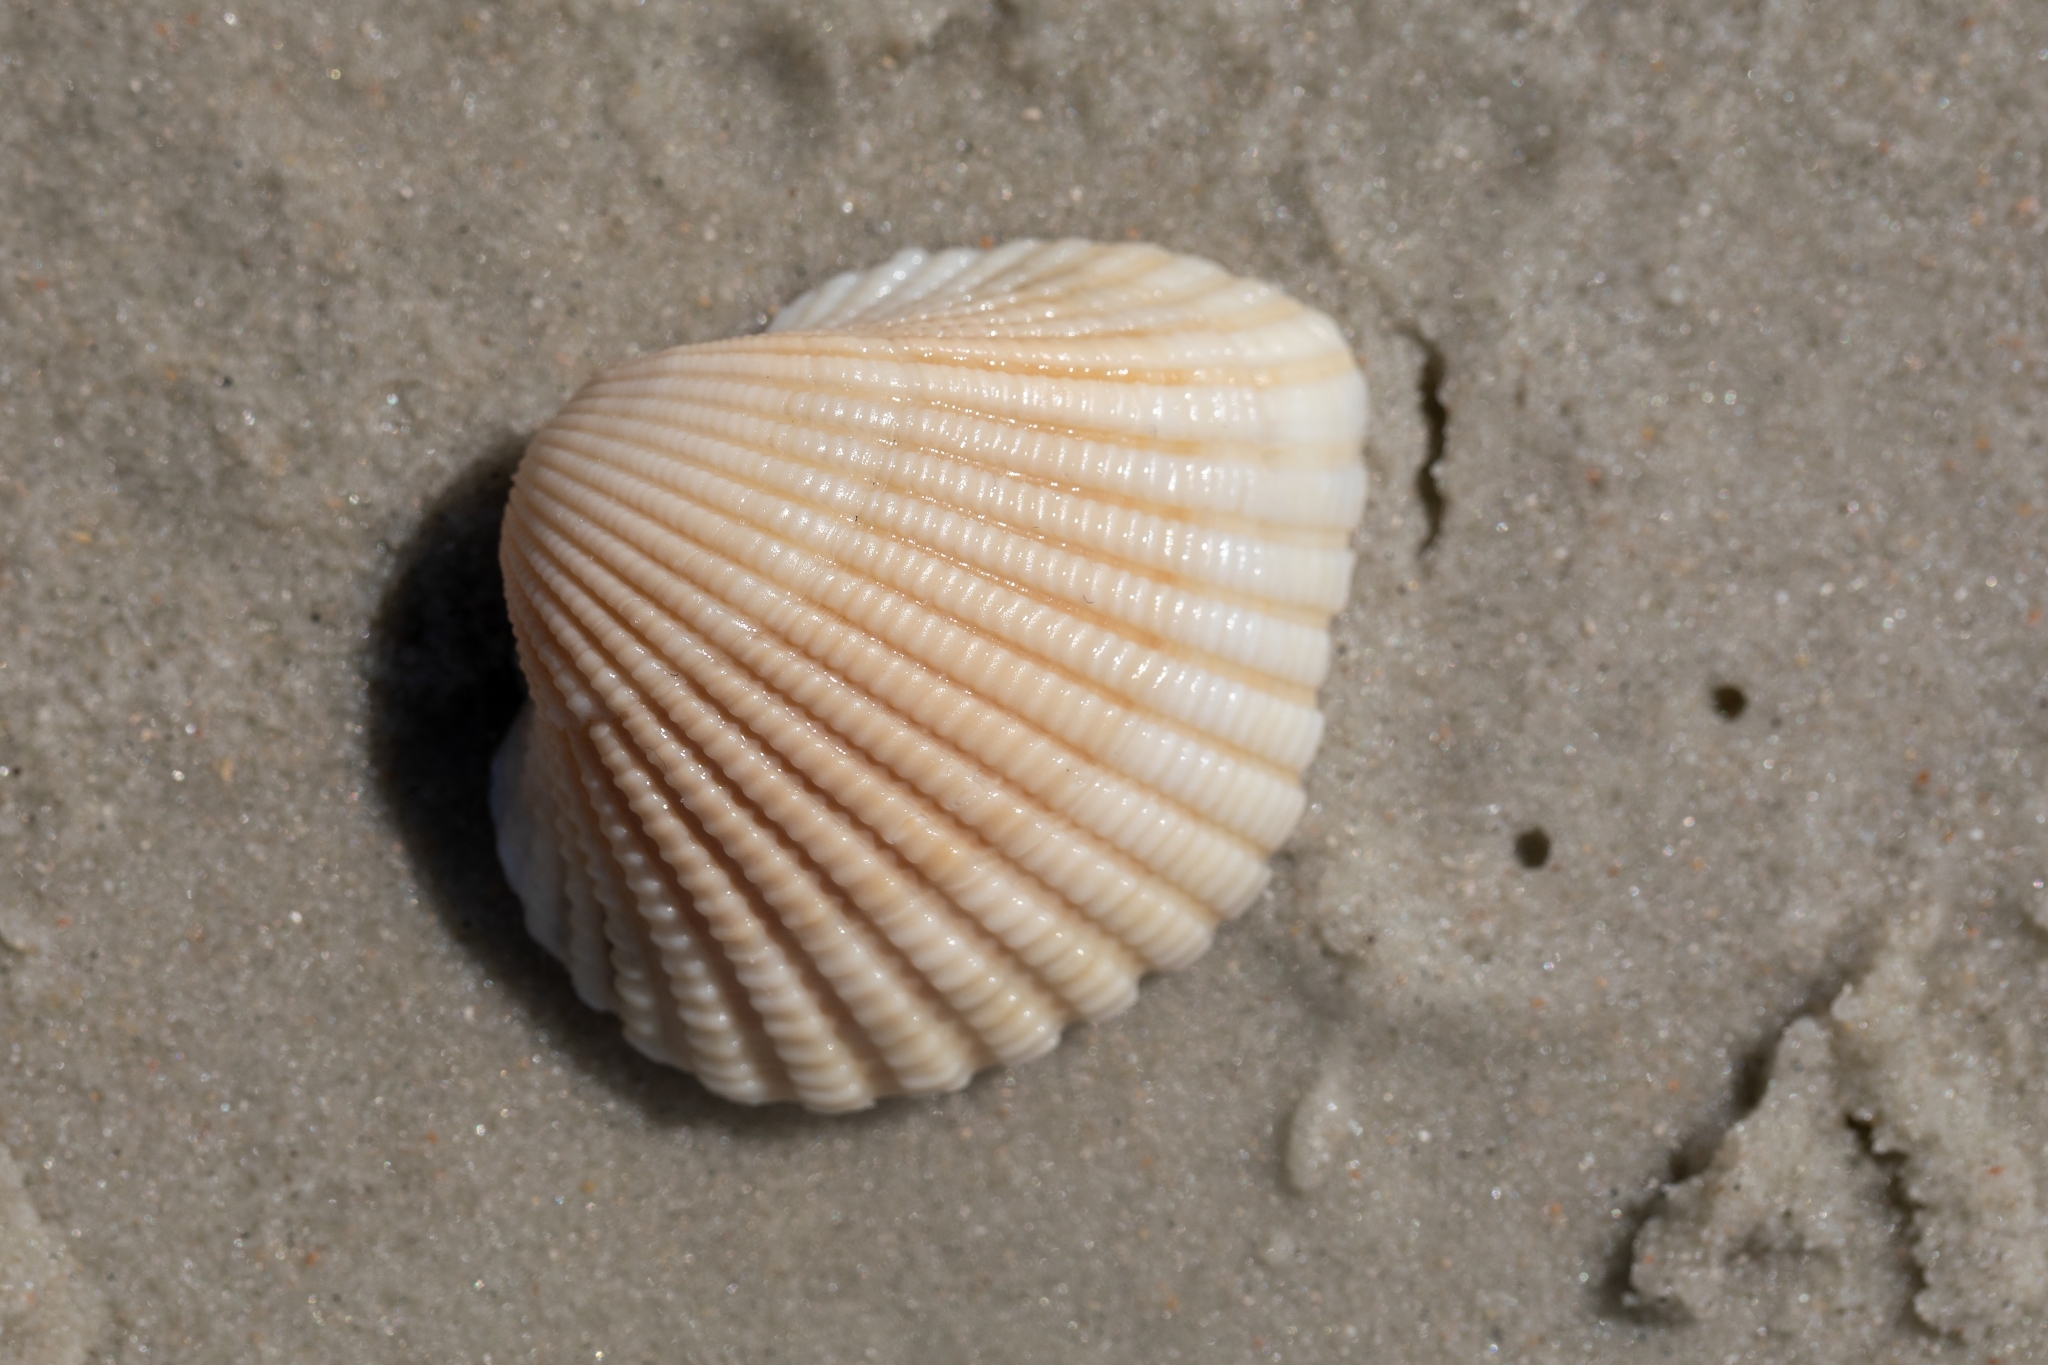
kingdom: Animalia
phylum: Mollusca
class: Bivalvia
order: Arcida
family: Arcidae
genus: Anadara
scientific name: Anadara brasiliana
